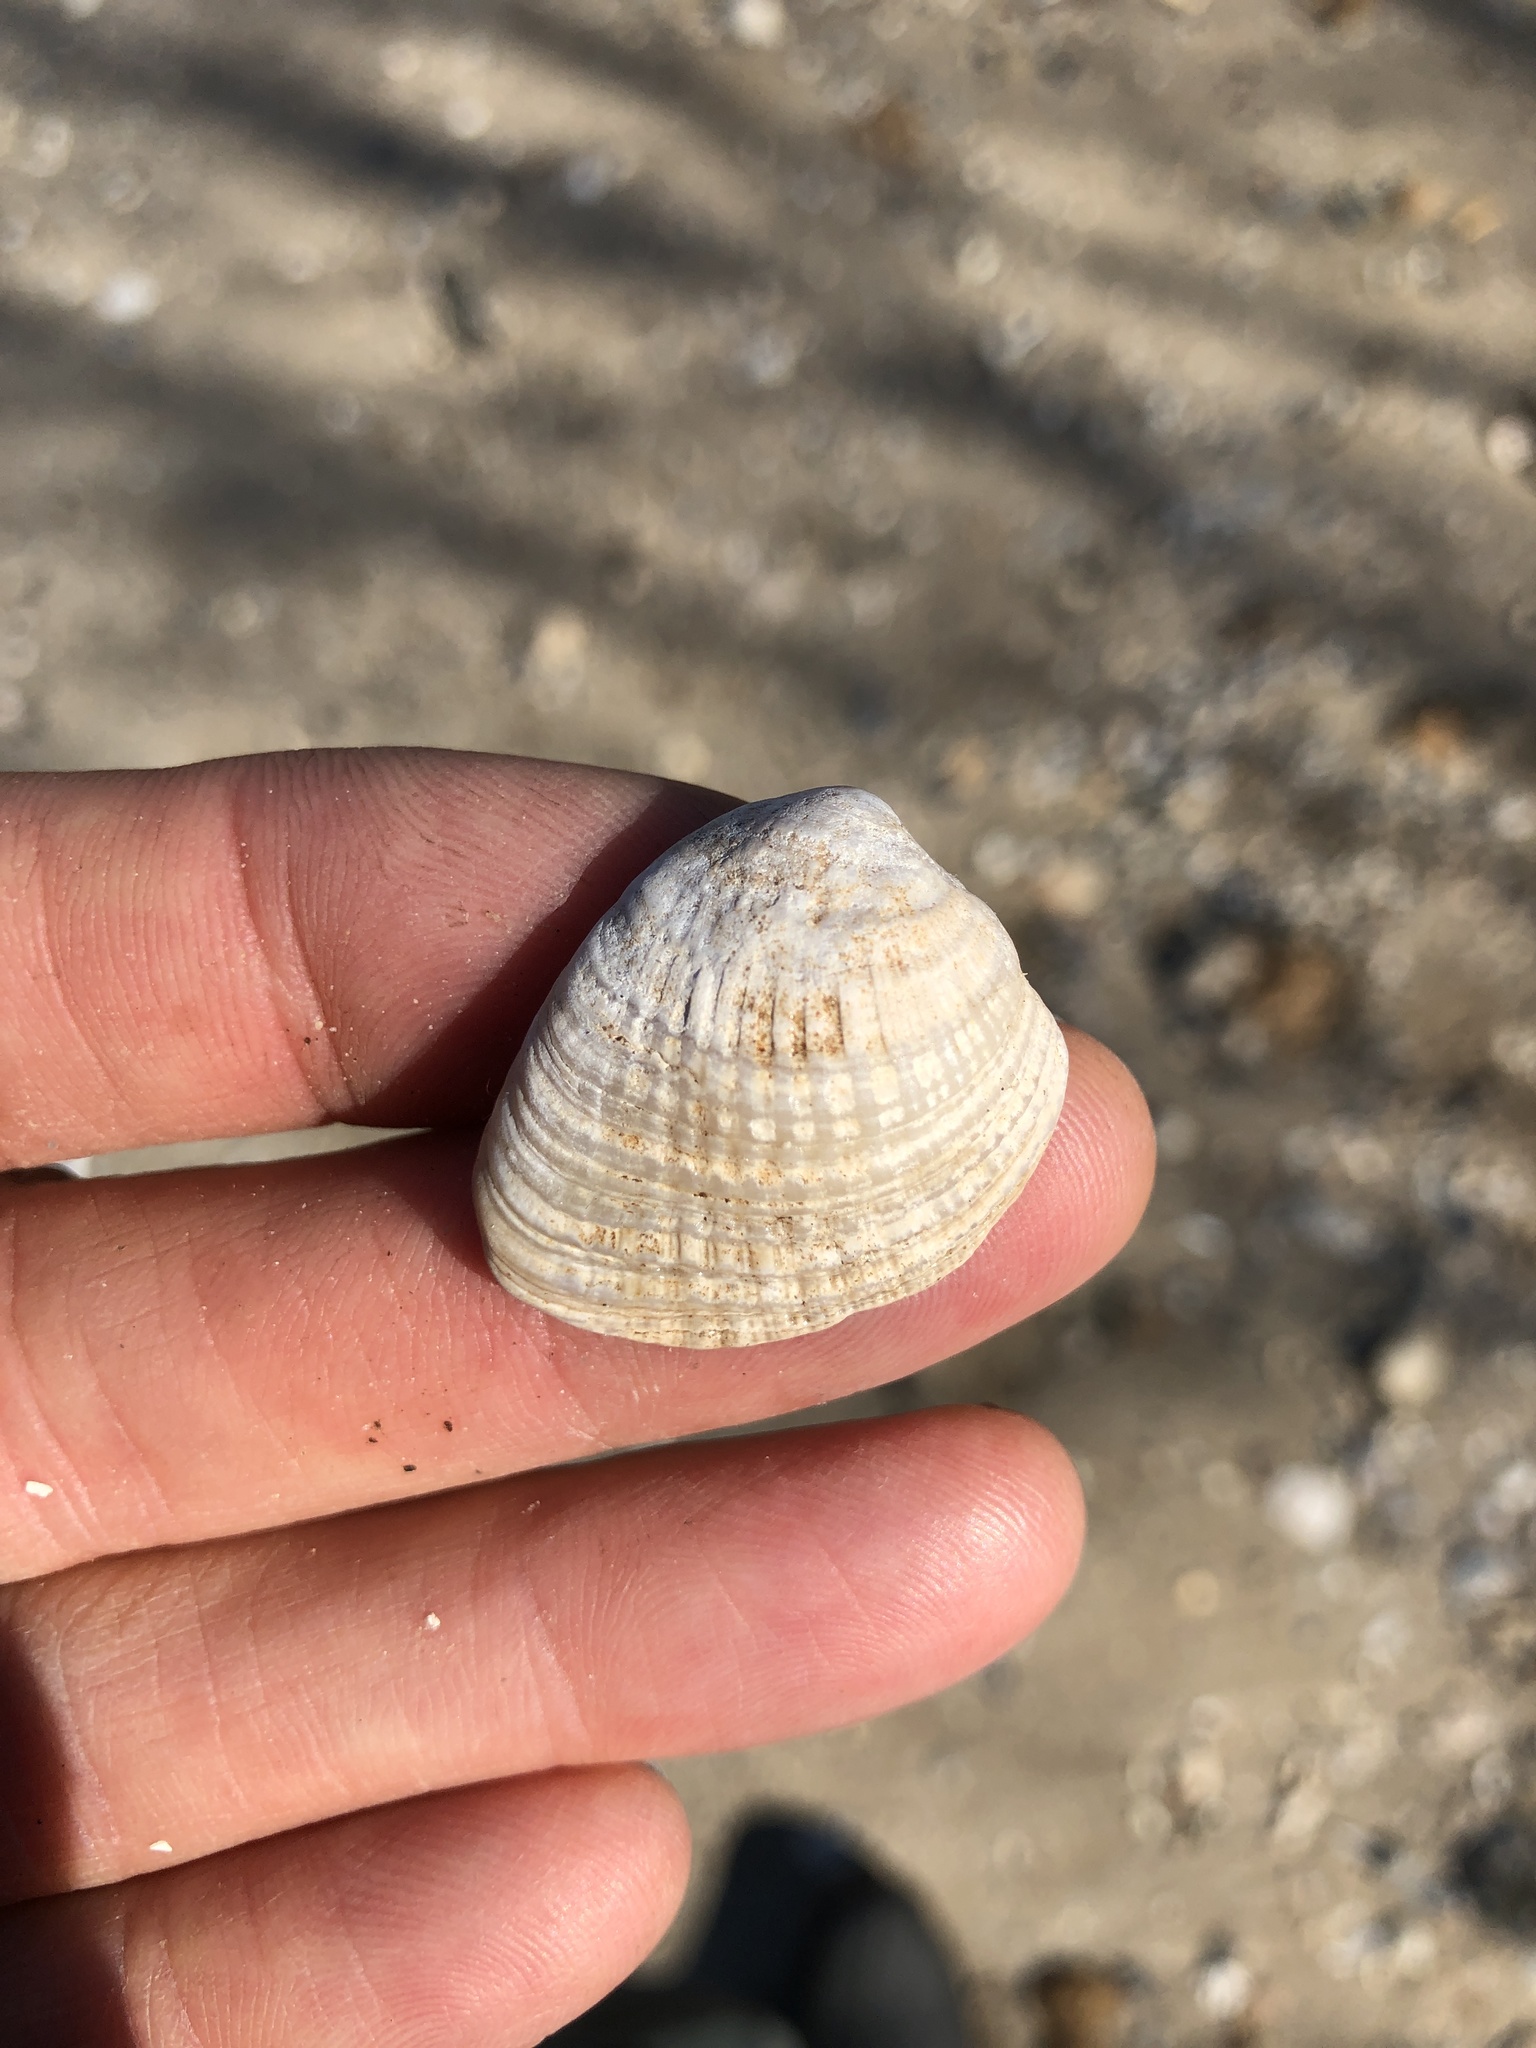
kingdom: Animalia
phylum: Mollusca
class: Bivalvia
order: Venerida
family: Veneridae
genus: Chione
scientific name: Chione elevata
